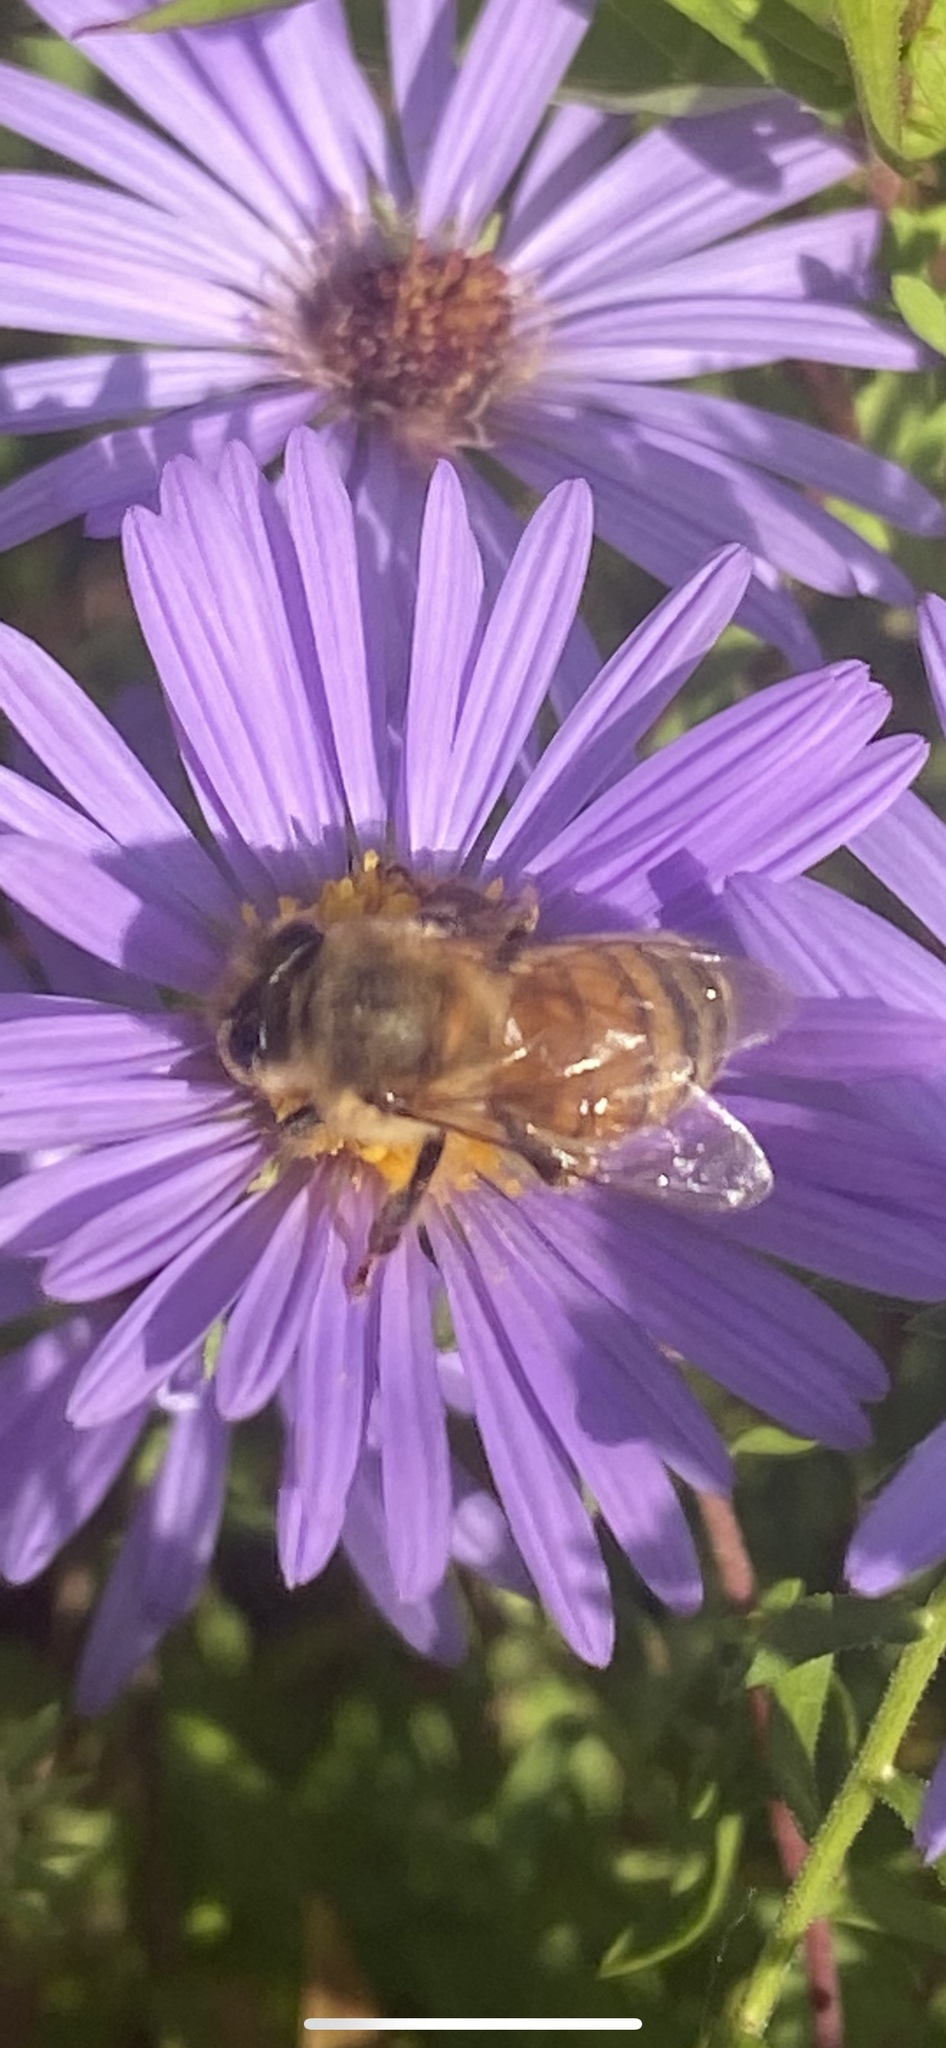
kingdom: Animalia
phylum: Arthropoda
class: Insecta
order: Hymenoptera
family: Apidae
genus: Apis
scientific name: Apis mellifera
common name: Honey bee
